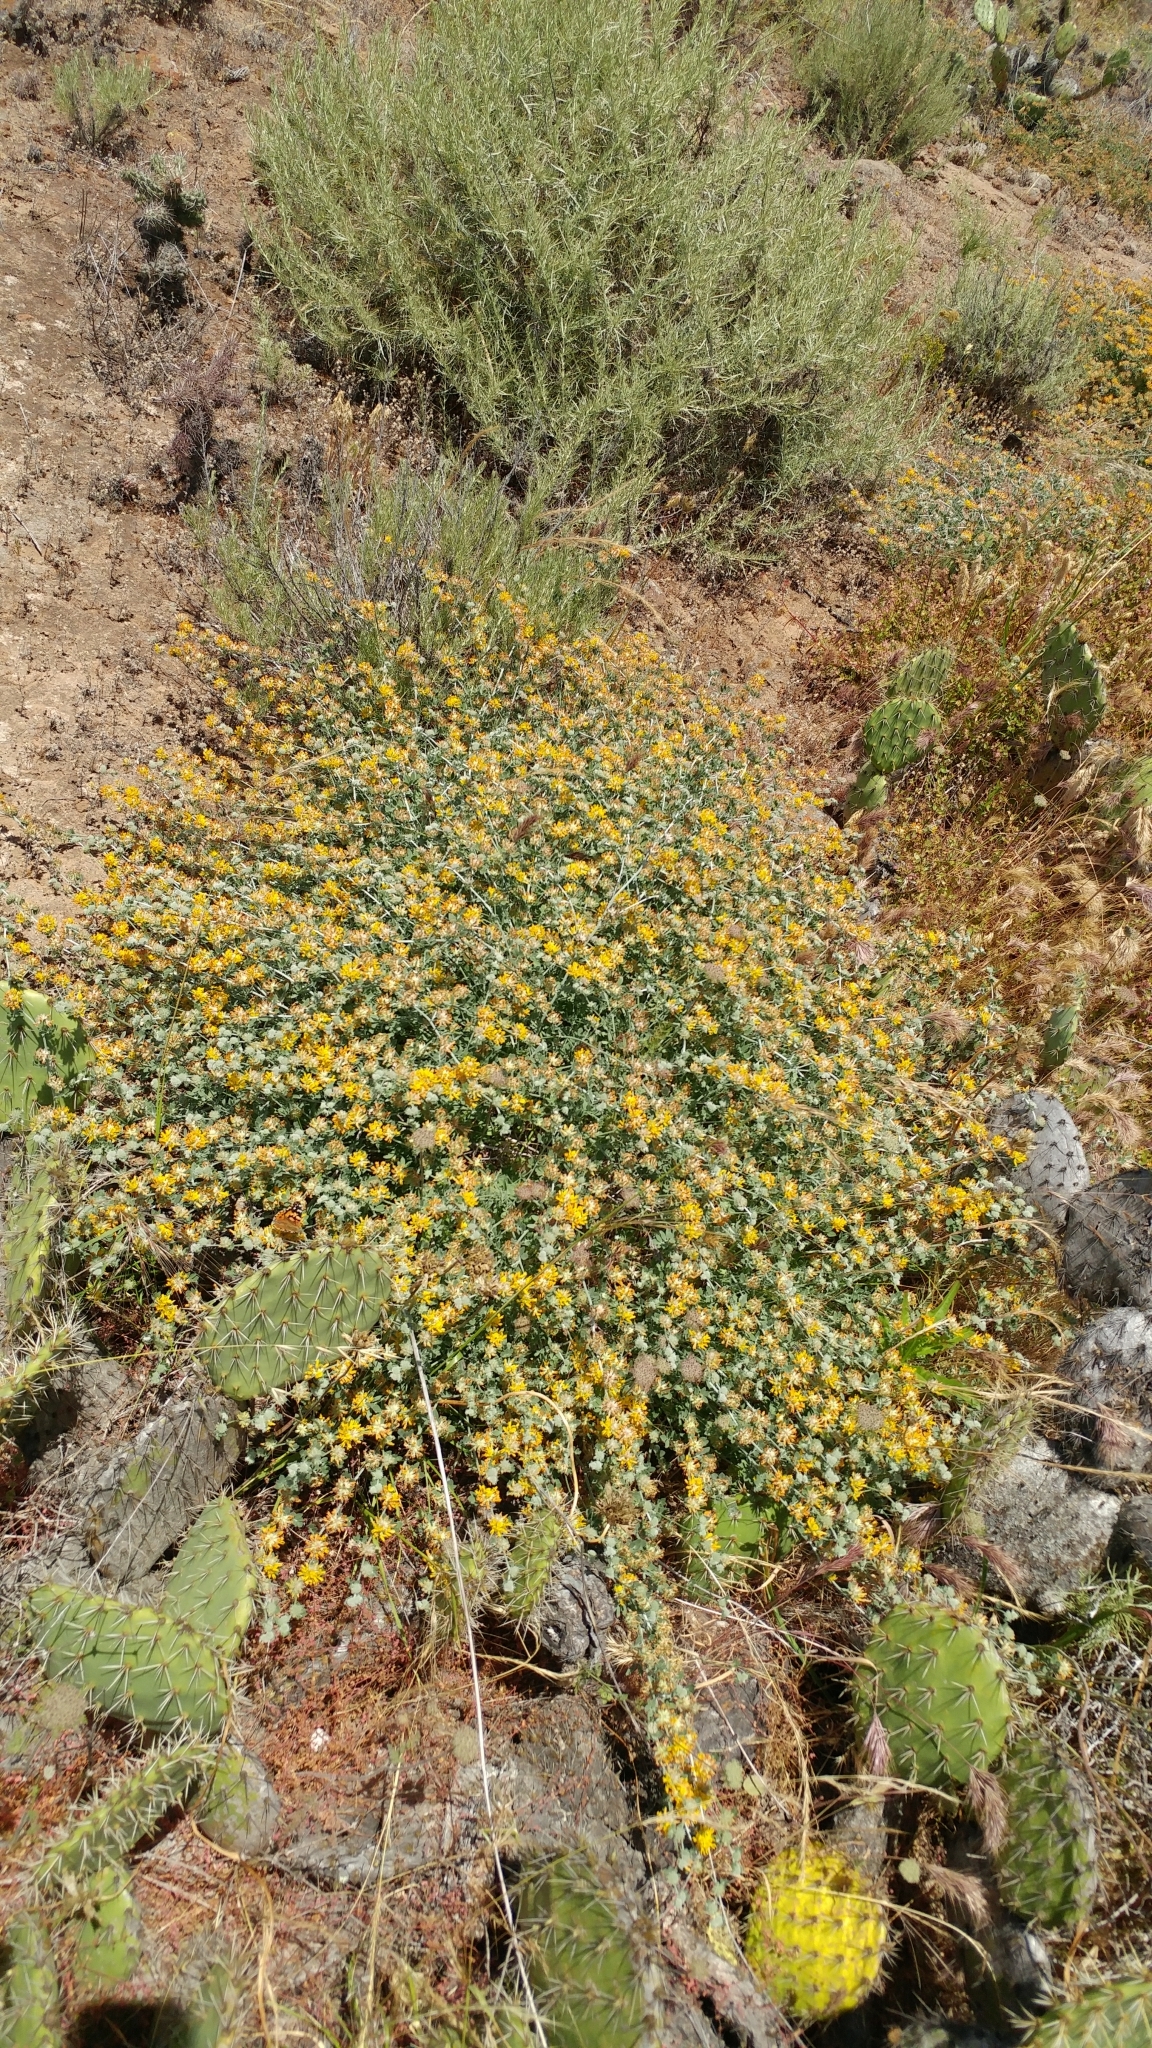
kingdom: Plantae
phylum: Tracheophyta
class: Magnoliopsida
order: Fabales
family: Fabaceae
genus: Acmispon
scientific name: Acmispon argophyllus
